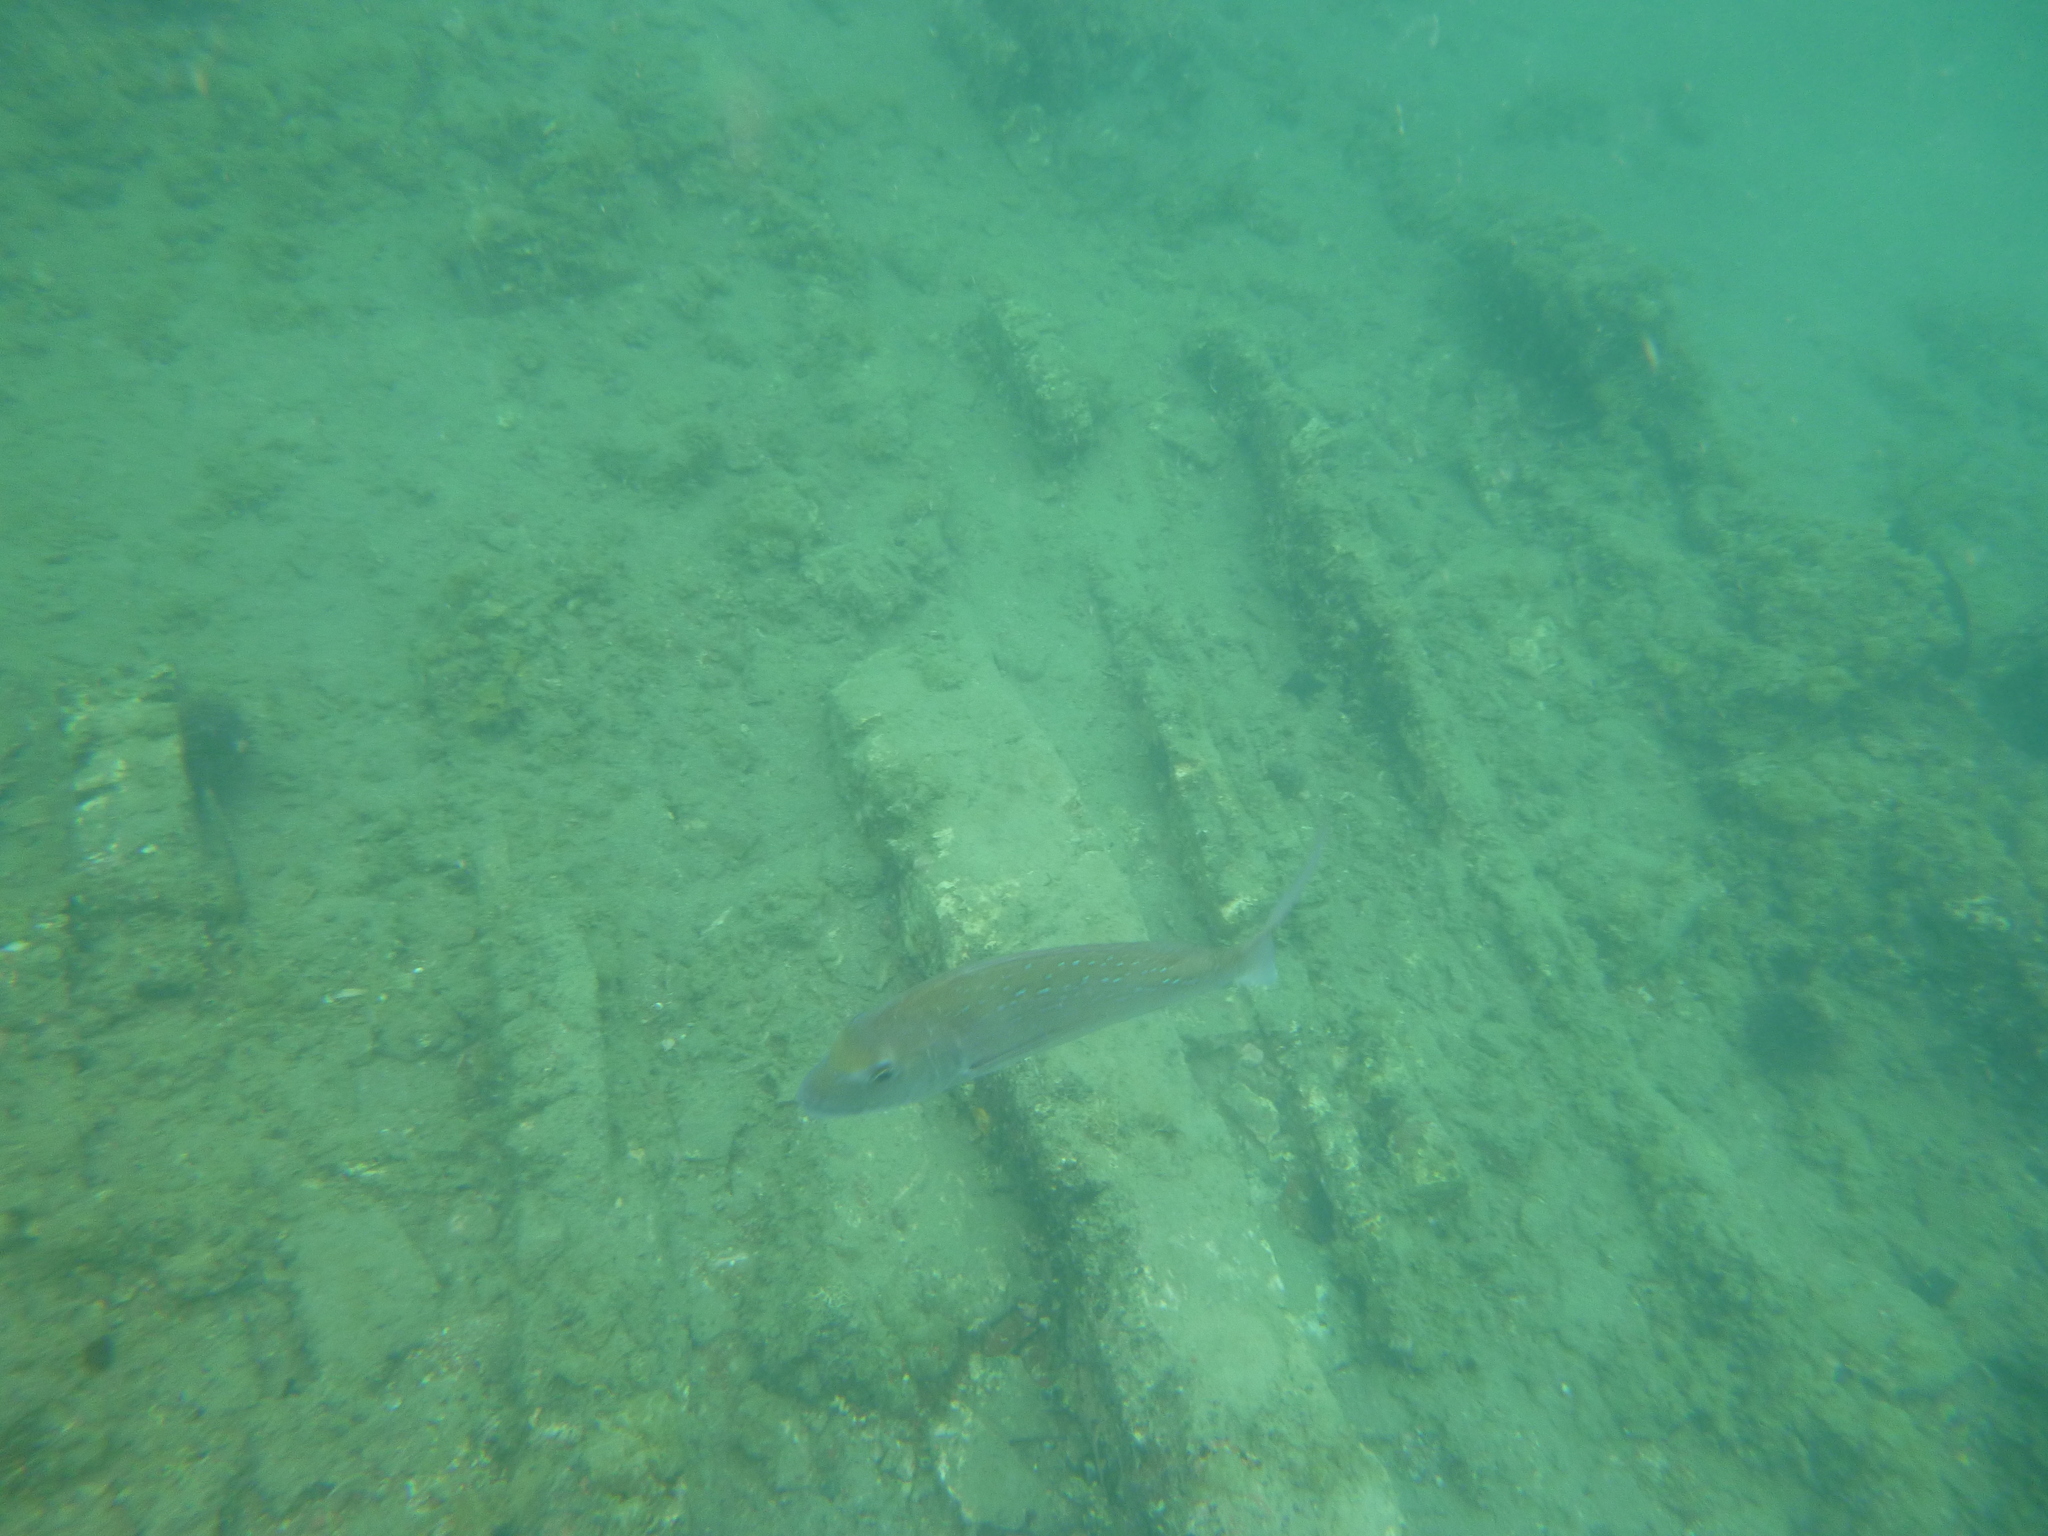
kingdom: Animalia
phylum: Chordata
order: Perciformes
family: Sparidae
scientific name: Sparidae
